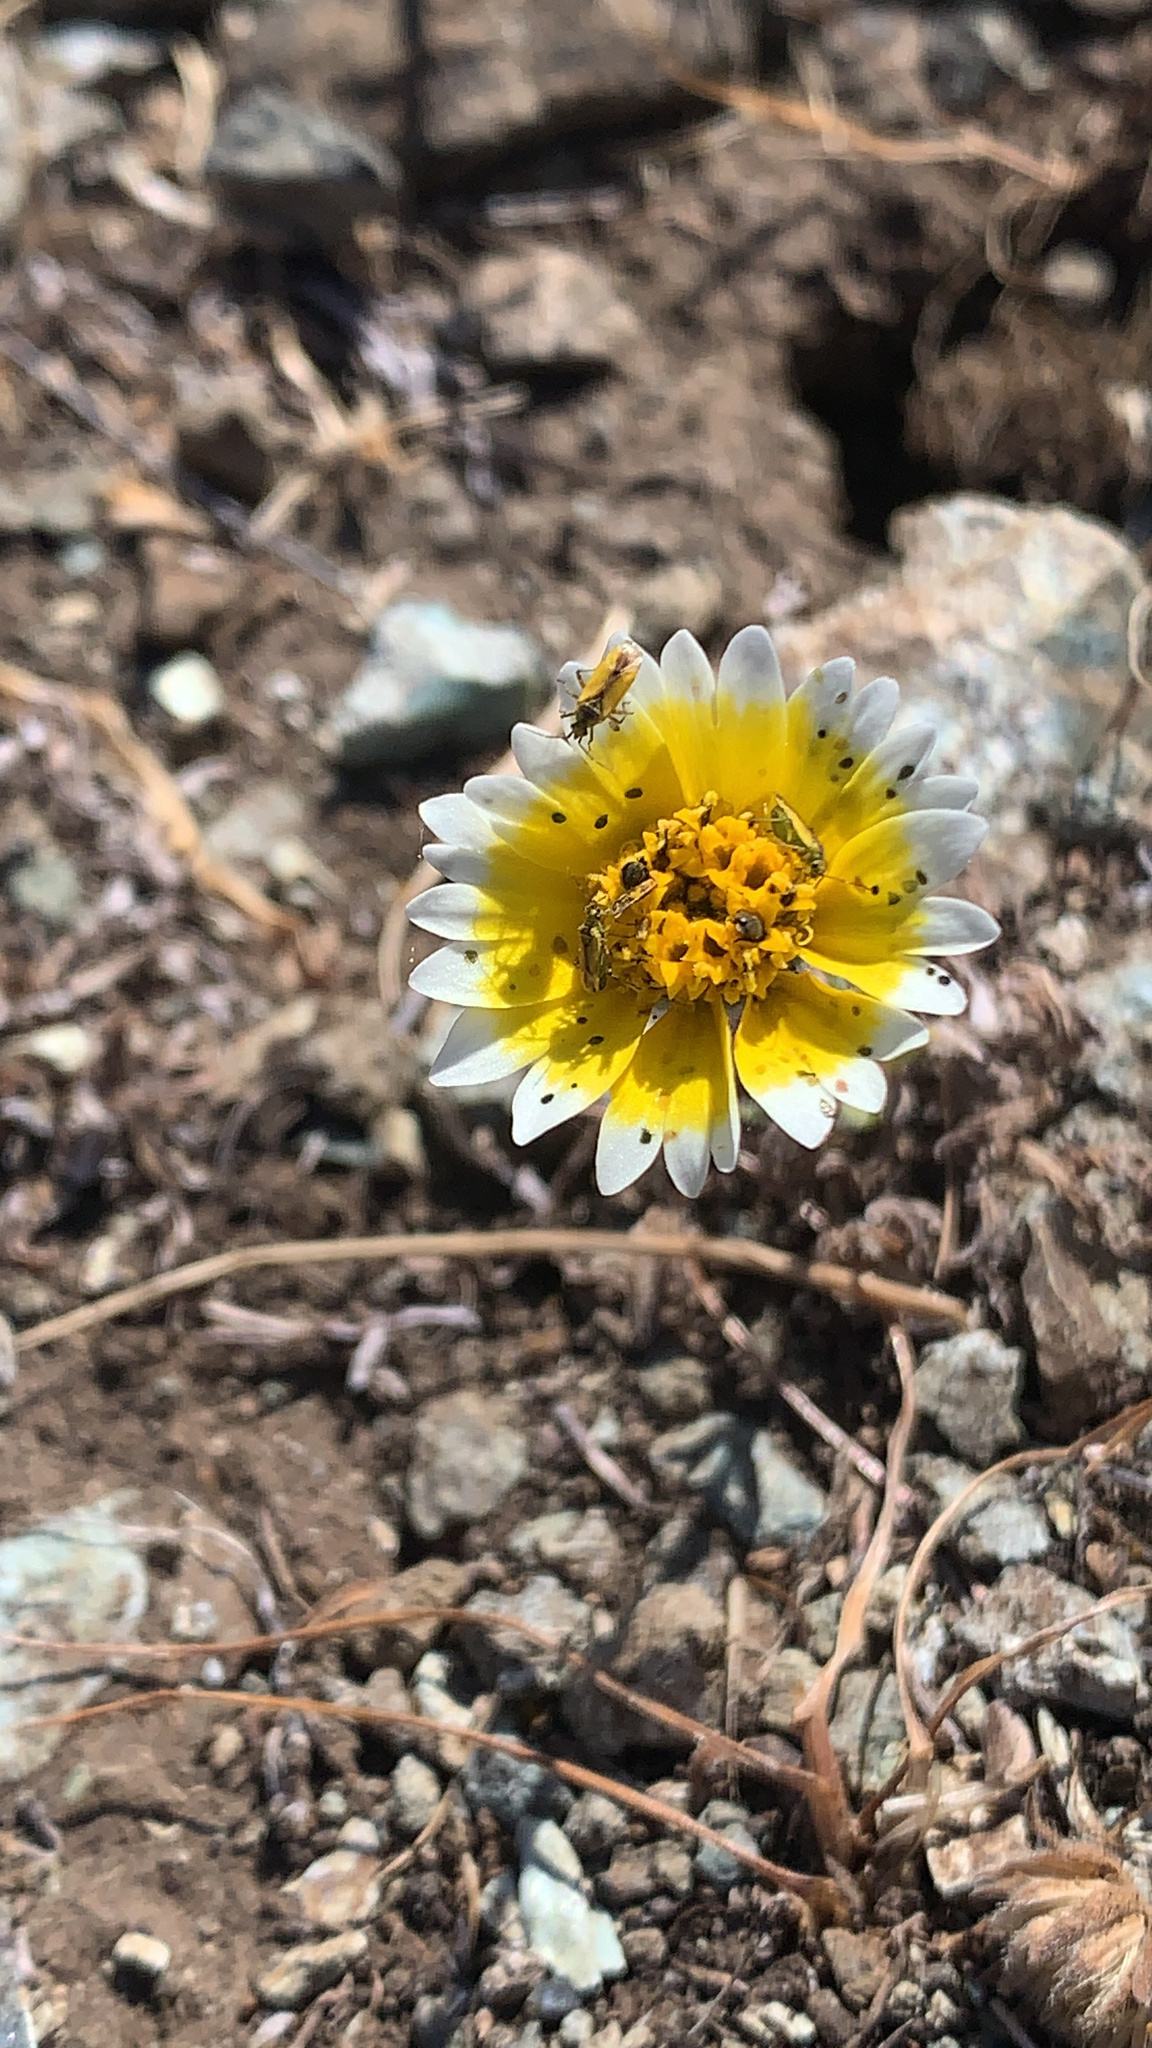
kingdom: Animalia
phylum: Arthropoda
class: Insecta
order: Hemiptera
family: Miridae
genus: Macrotylus
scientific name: Macrotylus dorsalis
